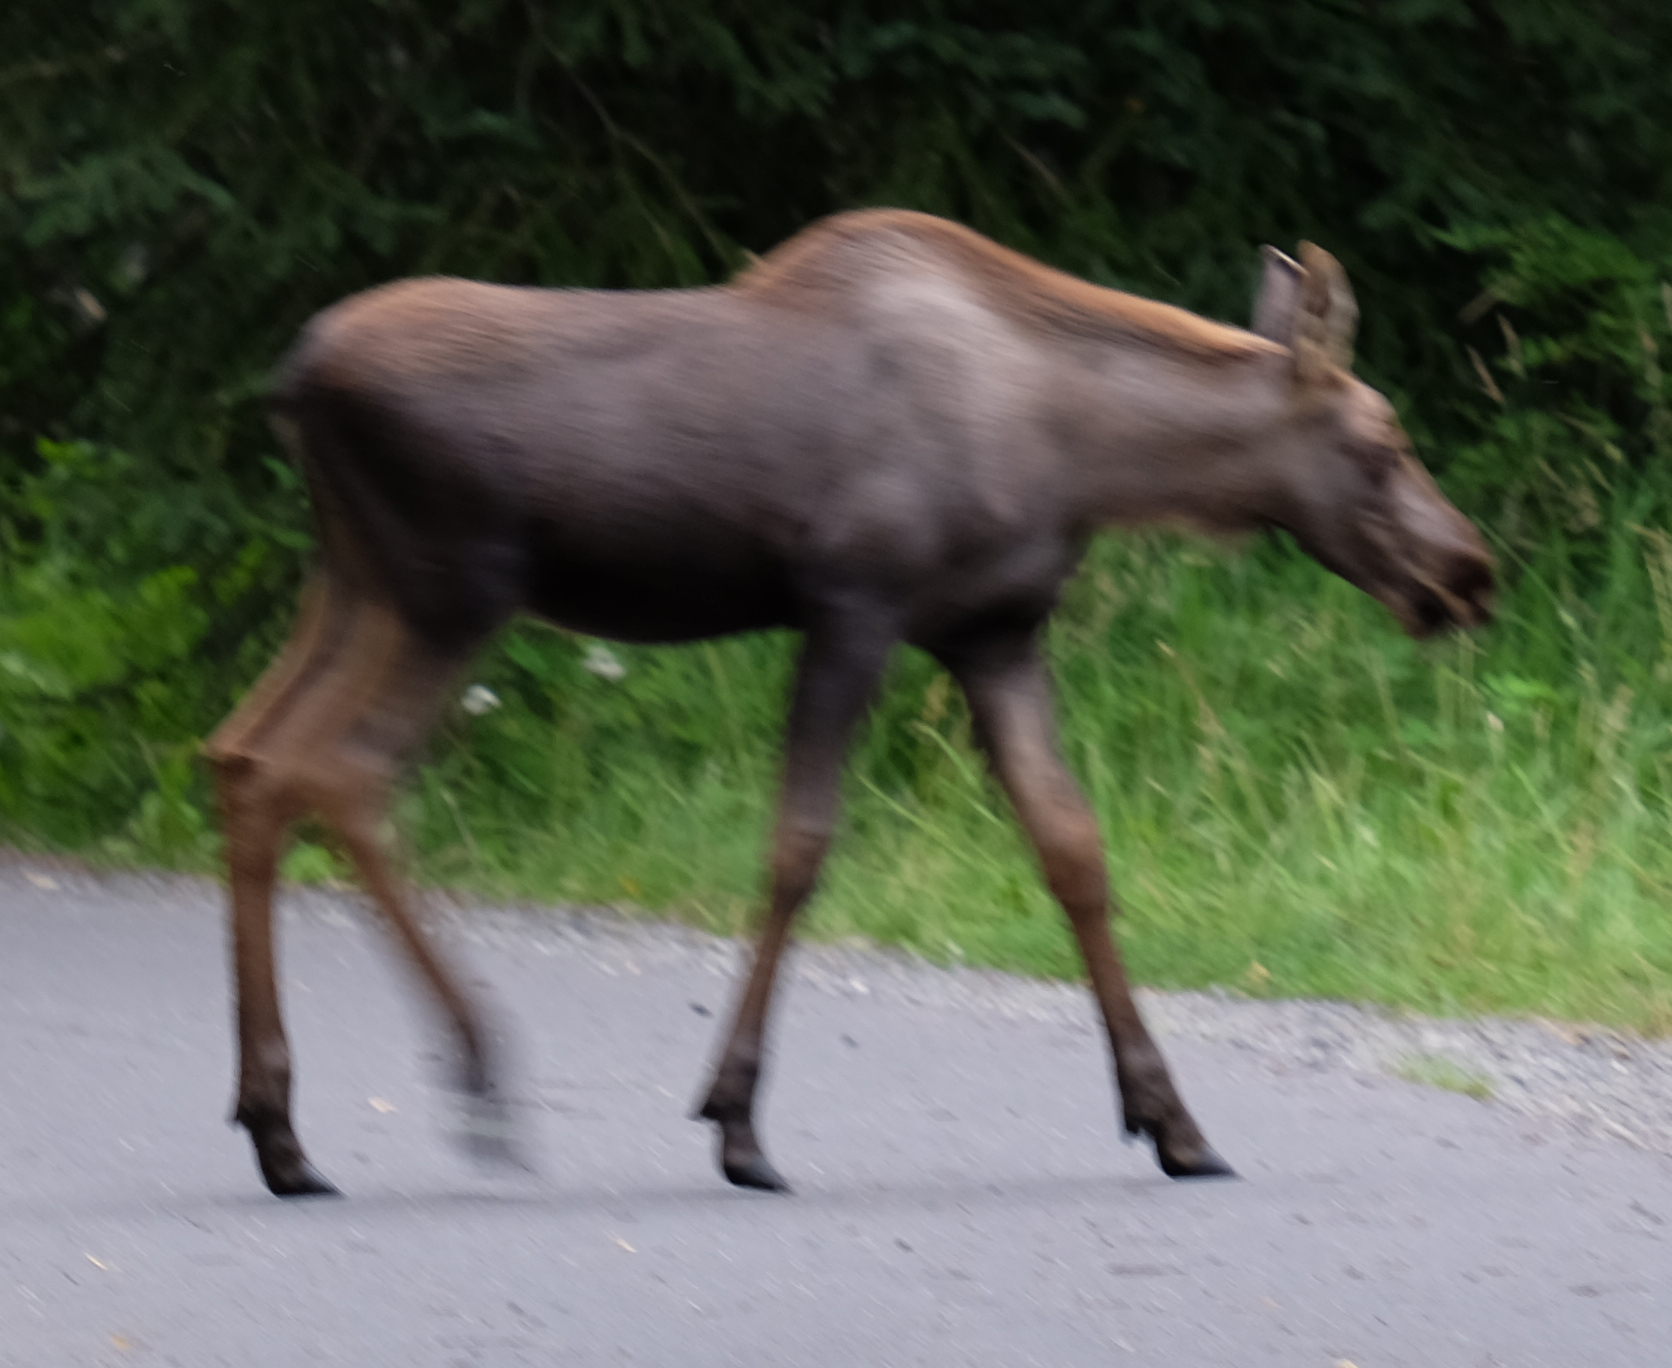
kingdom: Animalia
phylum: Chordata
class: Mammalia
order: Artiodactyla
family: Cervidae
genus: Alces
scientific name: Alces alces
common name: Moose
